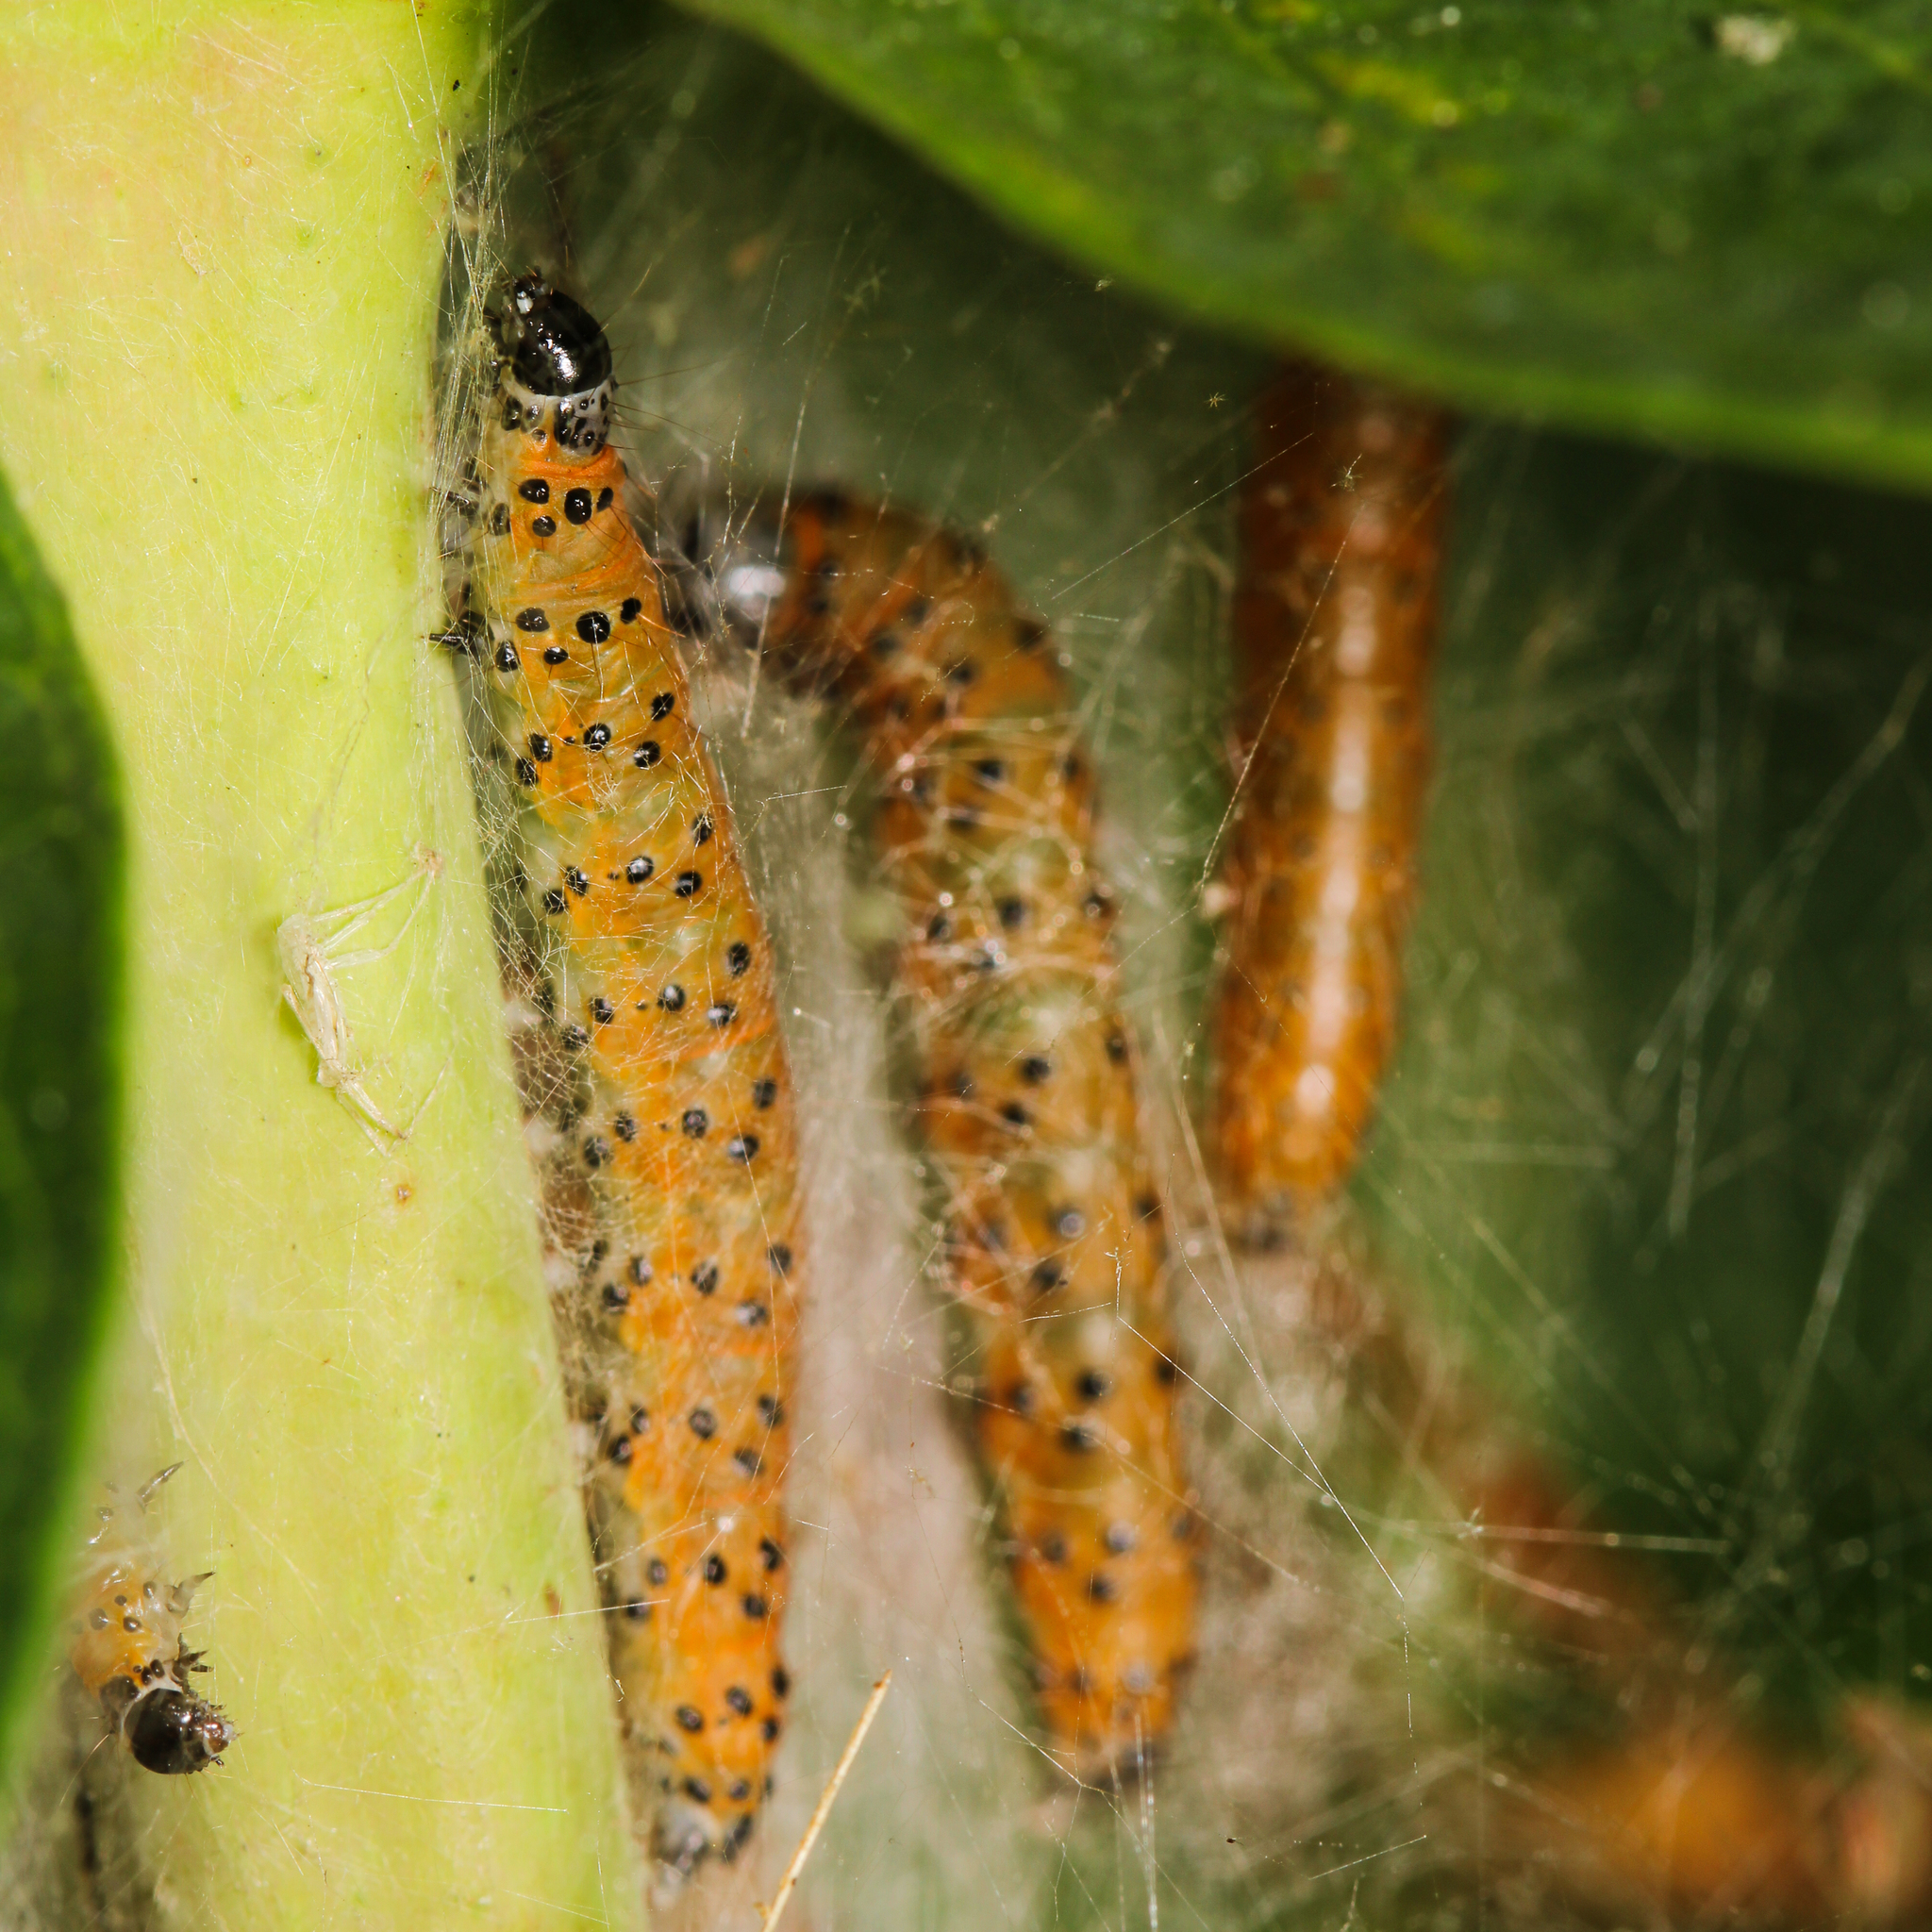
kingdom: Animalia
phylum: Arthropoda
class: Insecta
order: Lepidoptera
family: Crambidae
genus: Saucrobotys
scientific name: Saucrobotys futilalis
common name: Dogbane saucrobotys moth
